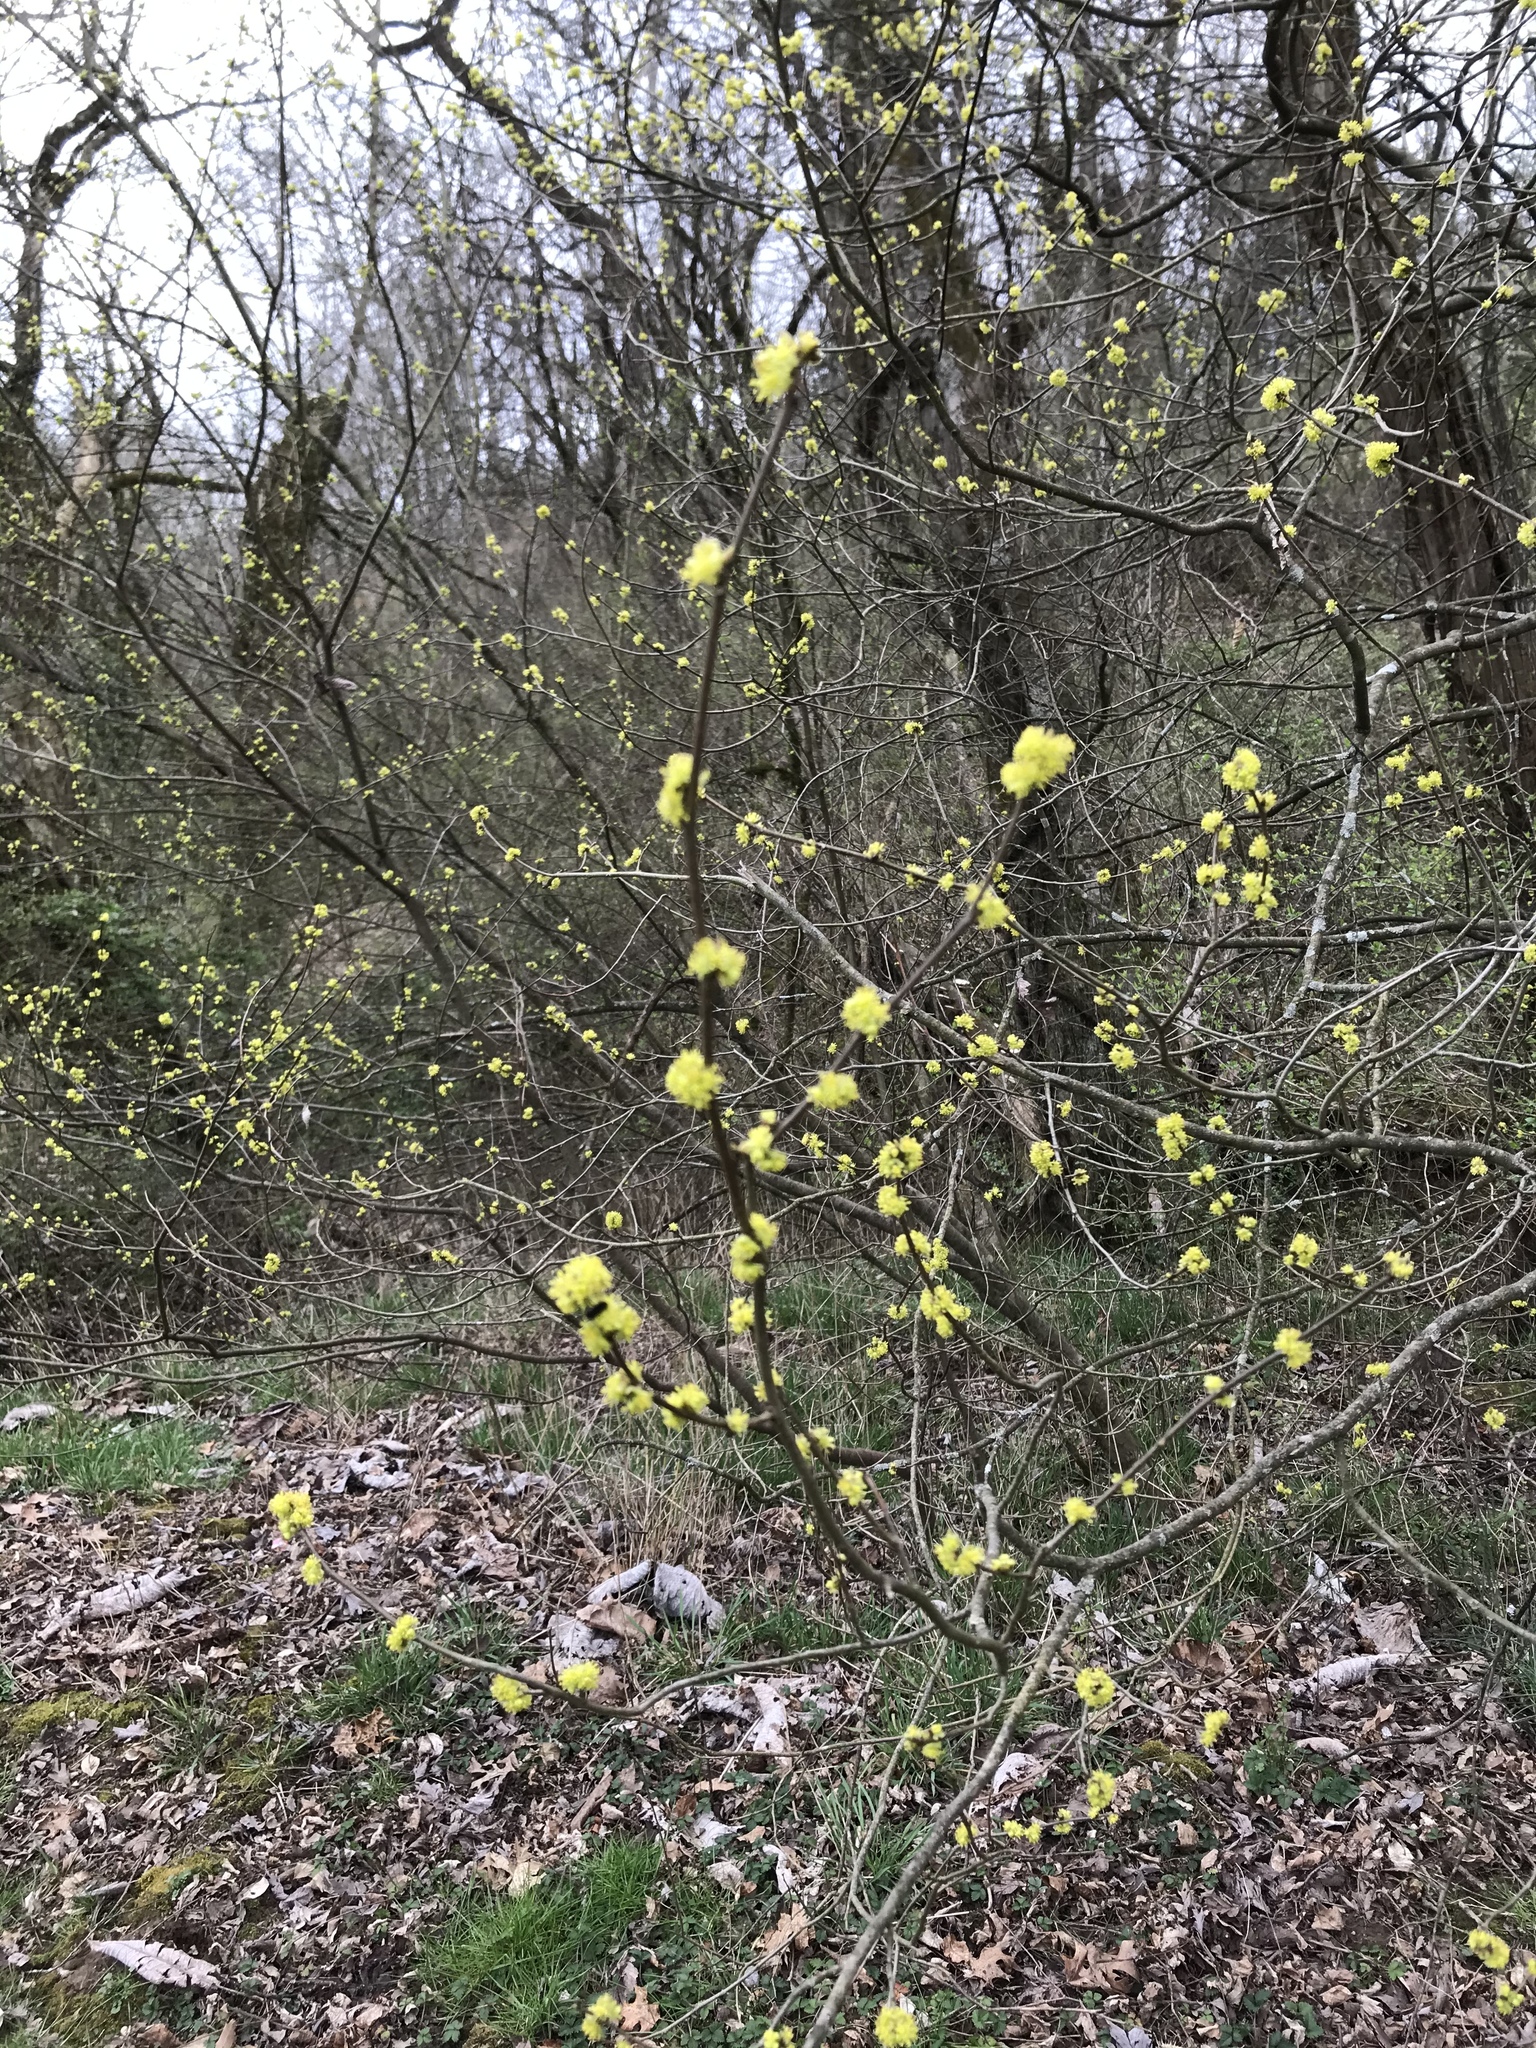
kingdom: Plantae
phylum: Tracheophyta
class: Magnoliopsida
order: Laurales
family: Lauraceae
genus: Lindera
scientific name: Lindera benzoin
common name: Spicebush
